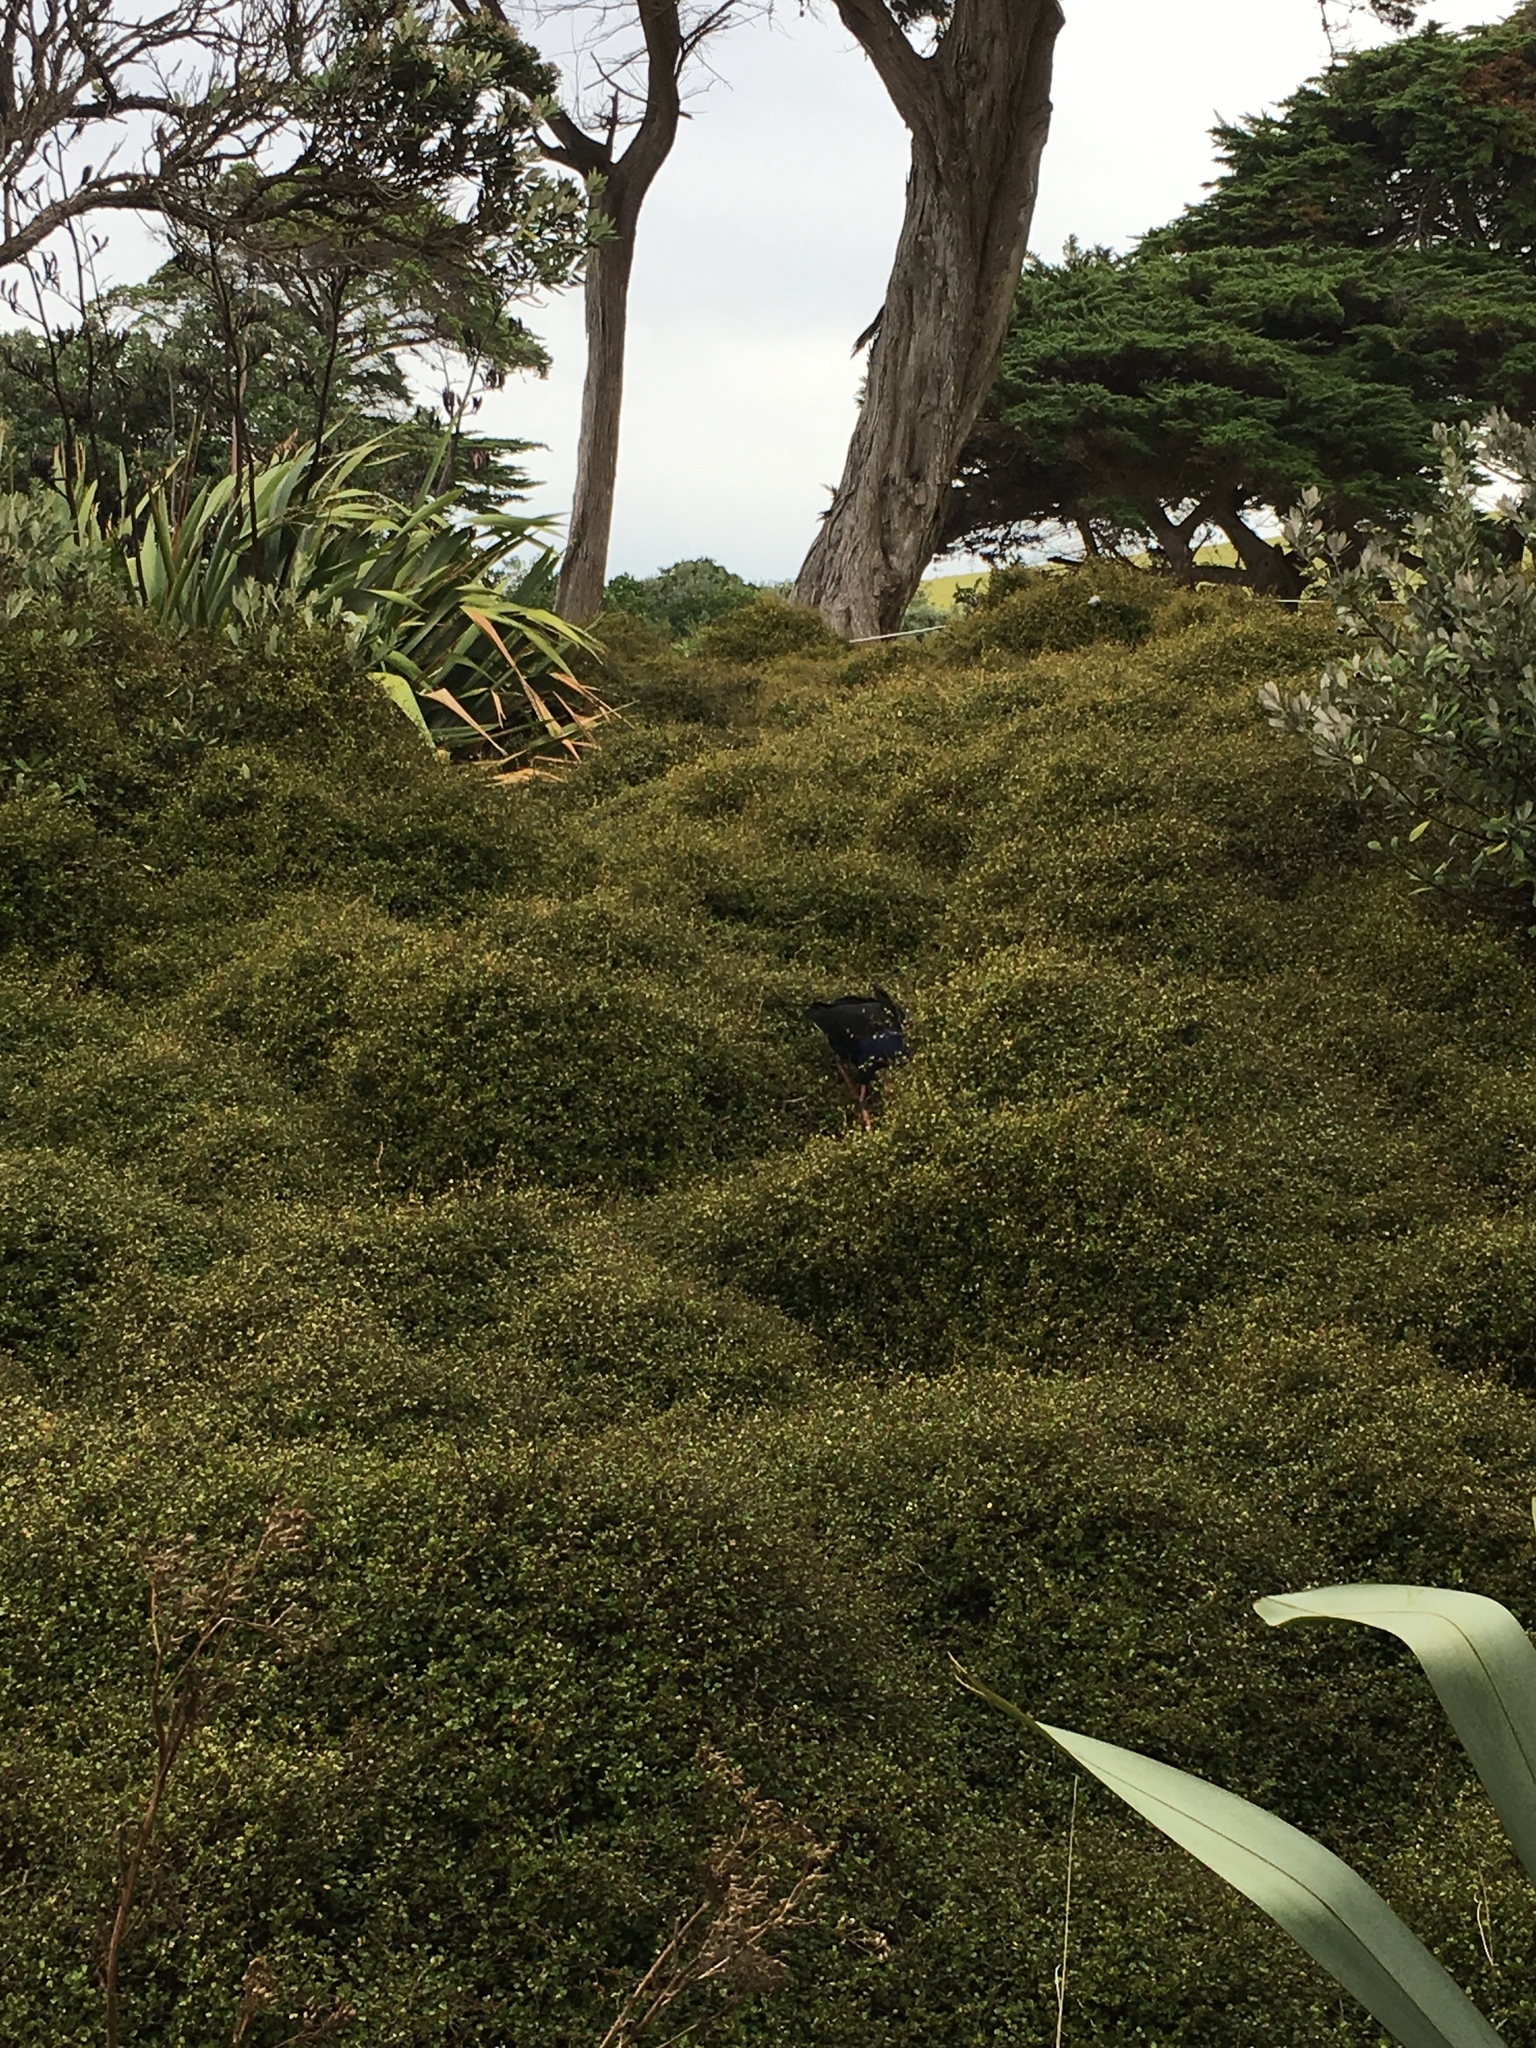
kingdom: Plantae
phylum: Tracheophyta
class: Magnoliopsida
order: Caryophyllales
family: Polygonaceae
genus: Muehlenbeckia
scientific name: Muehlenbeckia complexa
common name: Wireplant
